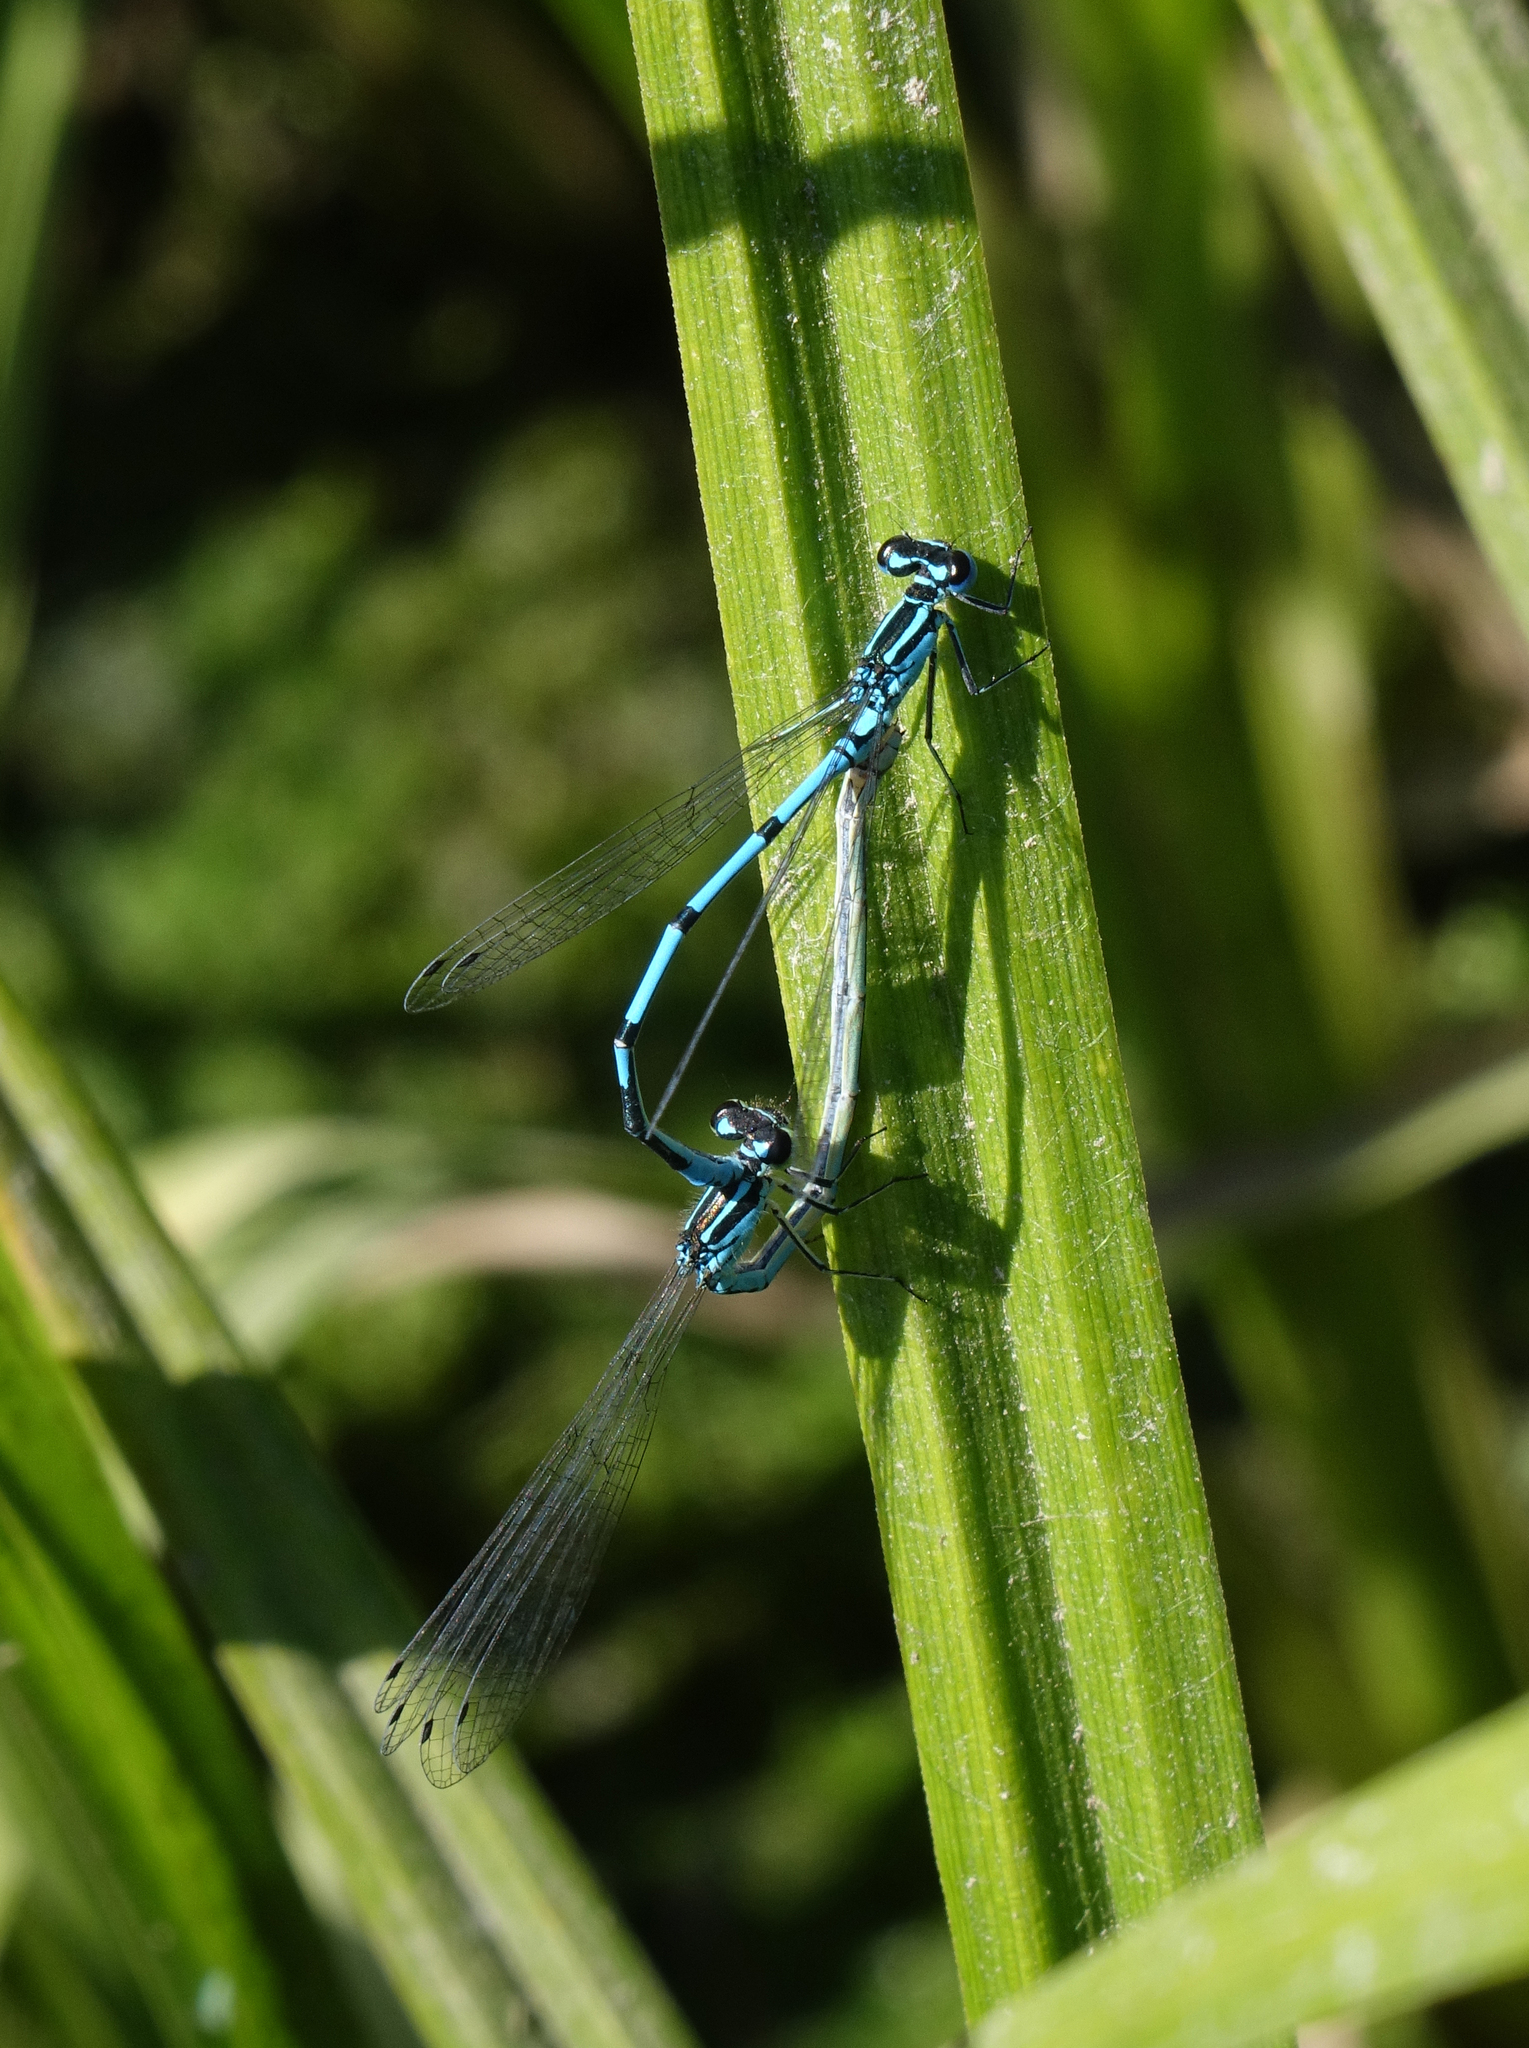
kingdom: Animalia
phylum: Arthropoda
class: Insecta
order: Odonata
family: Coenagrionidae
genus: Coenagrion
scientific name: Coenagrion puella
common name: Azure damselfly
